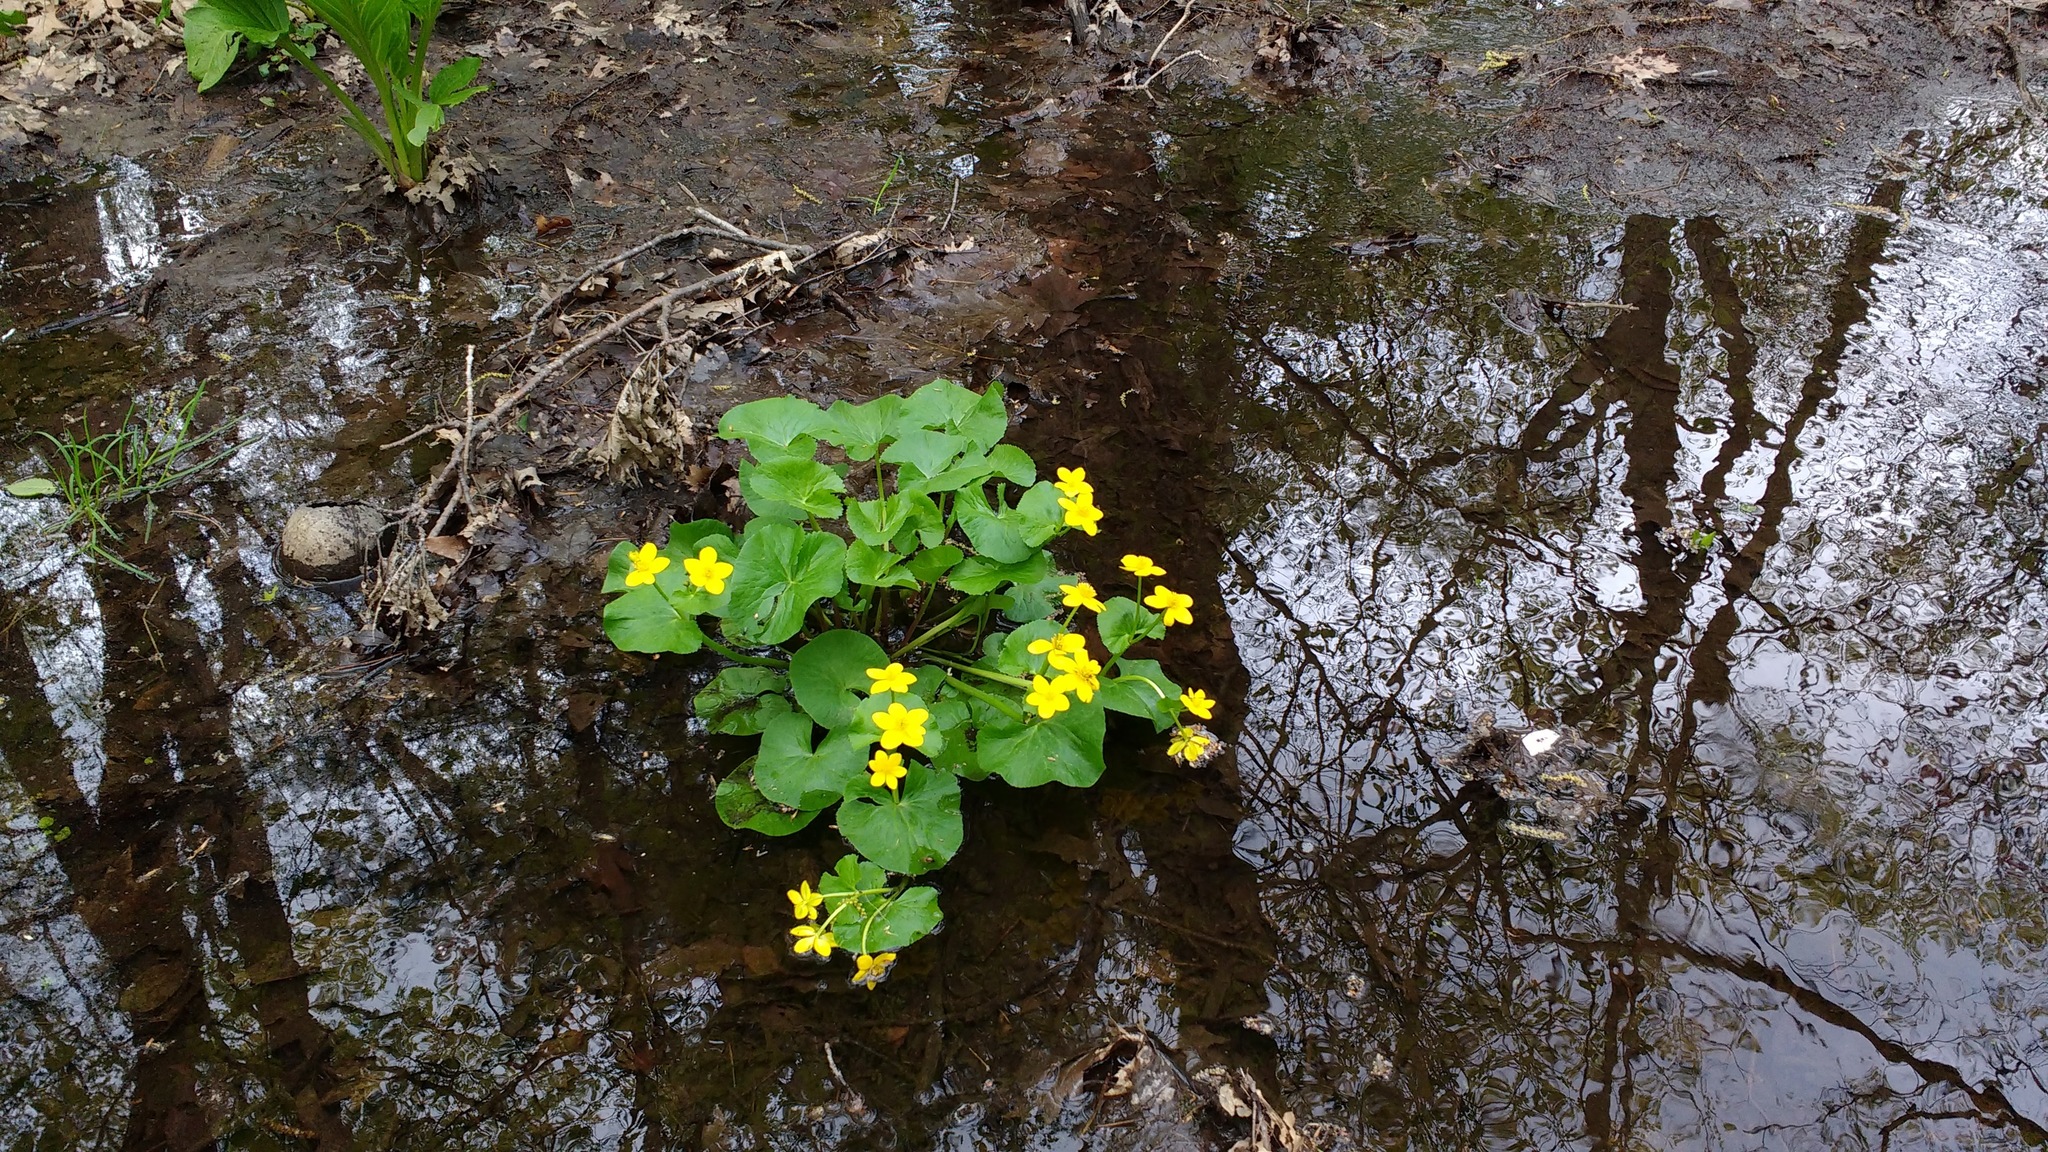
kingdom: Plantae
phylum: Tracheophyta
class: Magnoliopsida
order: Ranunculales
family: Ranunculaceae
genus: Caltha
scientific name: Caltha palustris
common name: Marsh marigold
